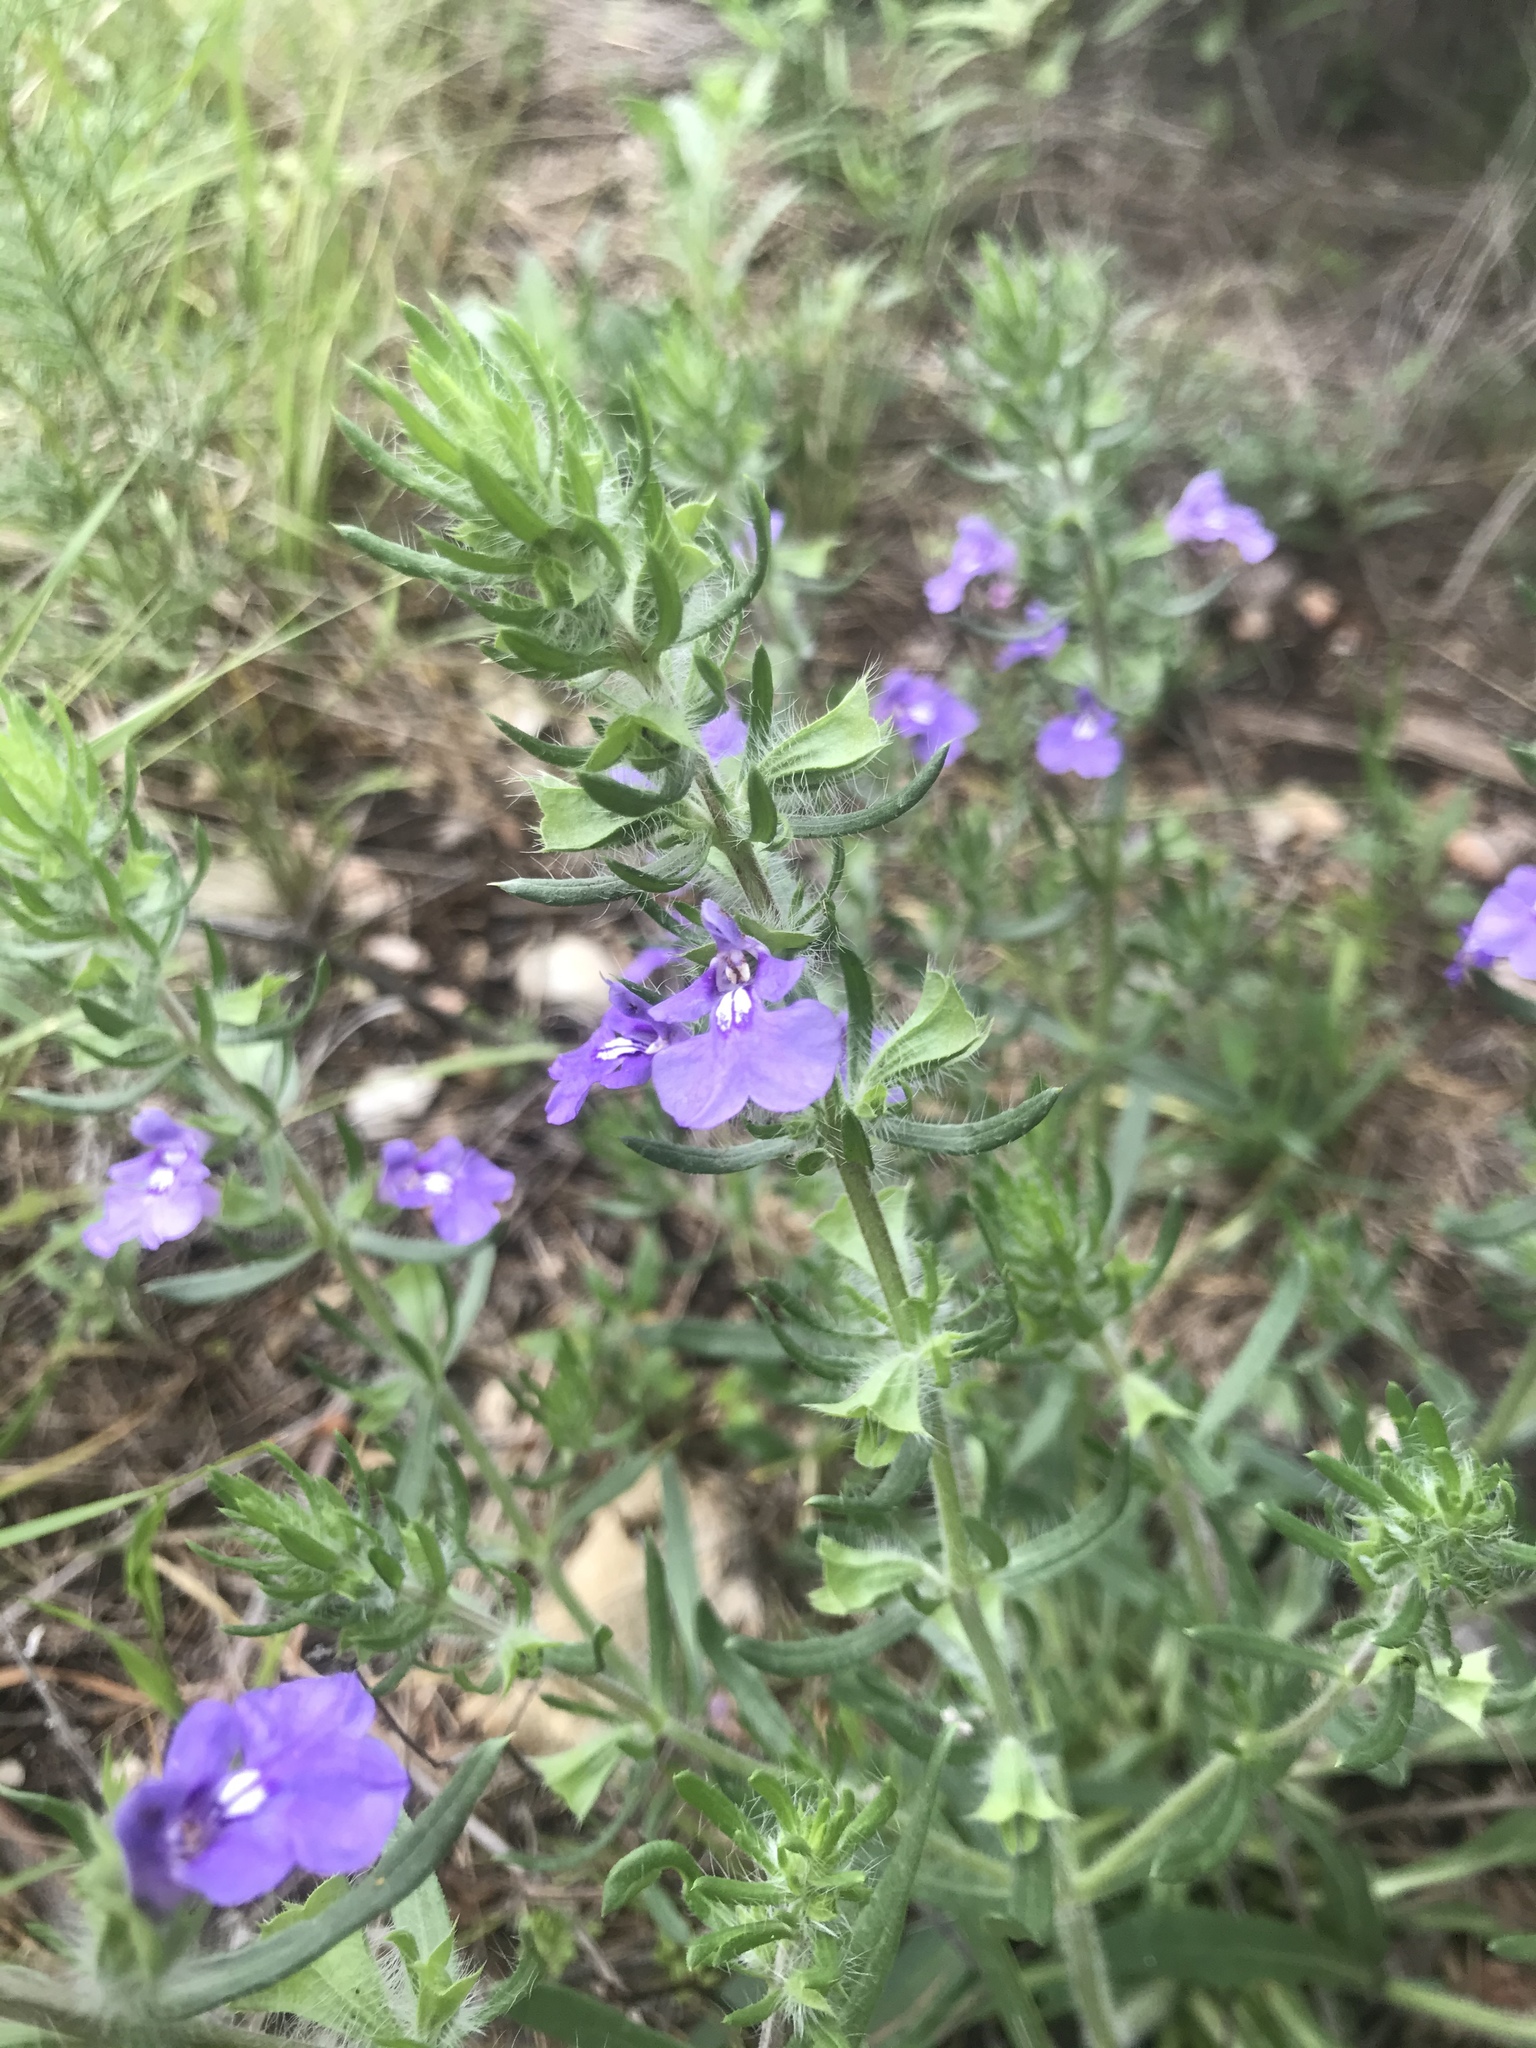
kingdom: Plantae
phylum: Tracheophyta
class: Magnoliopsida
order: Lamiales
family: Lamiaceae
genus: Salvia
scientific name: Salvia texana
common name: Texas sage
